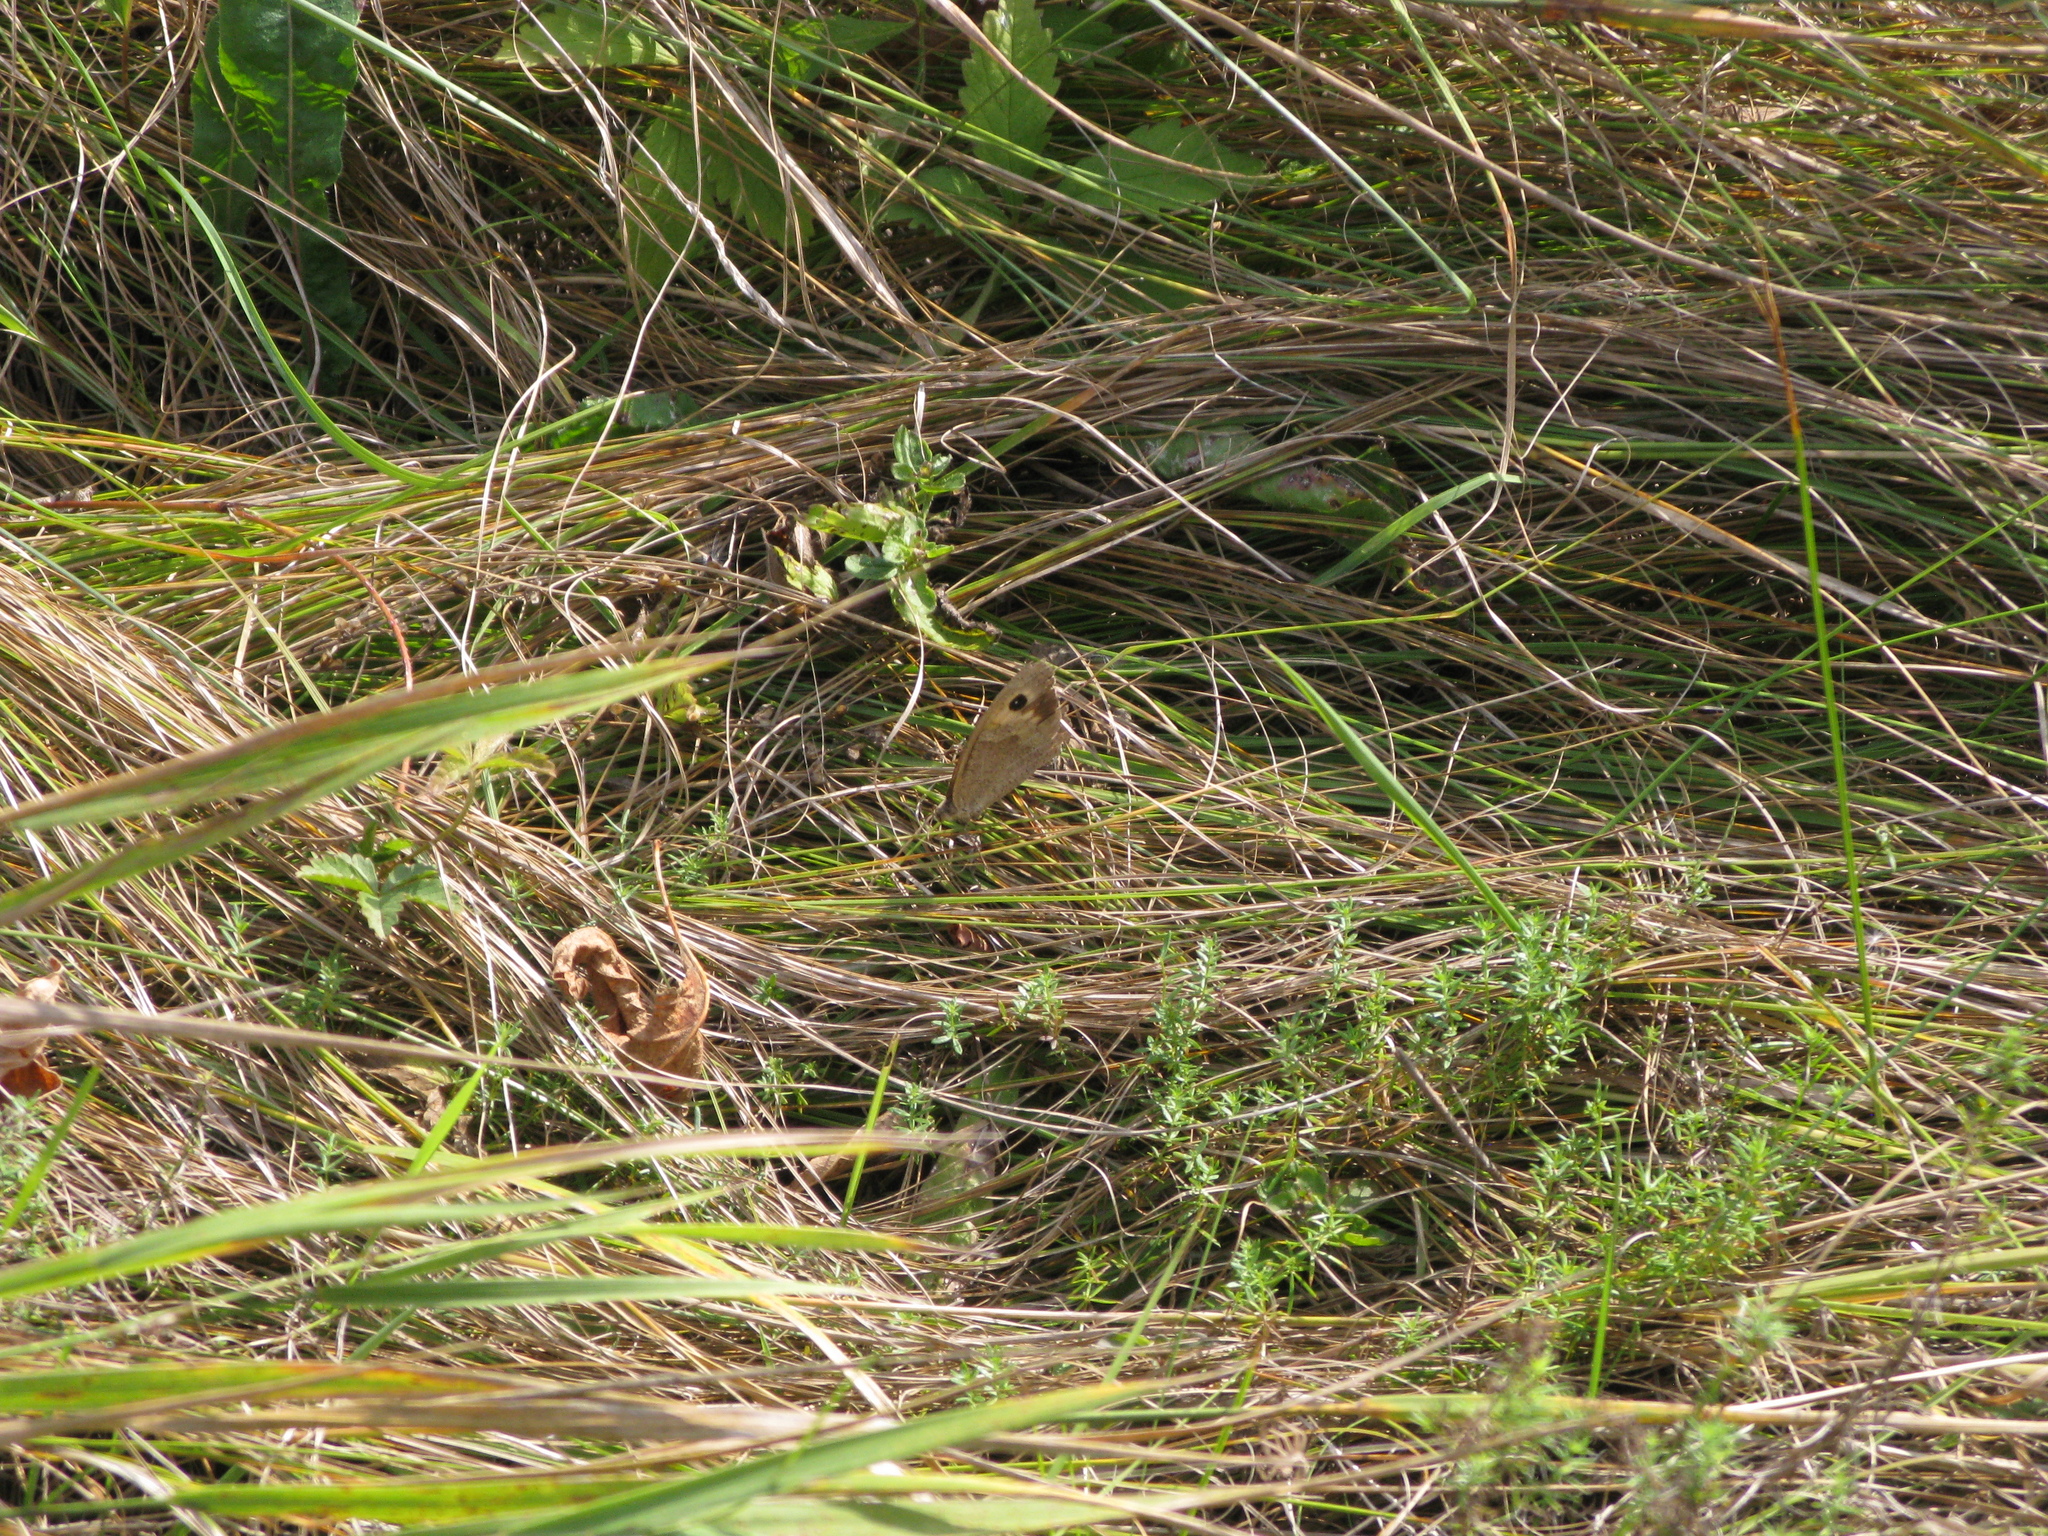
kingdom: Animalia
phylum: Arthropoda
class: Insecta
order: Lepidoptera
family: Nymphalidae
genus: Maniola
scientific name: Maniola jurtina
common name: Meadow brown
